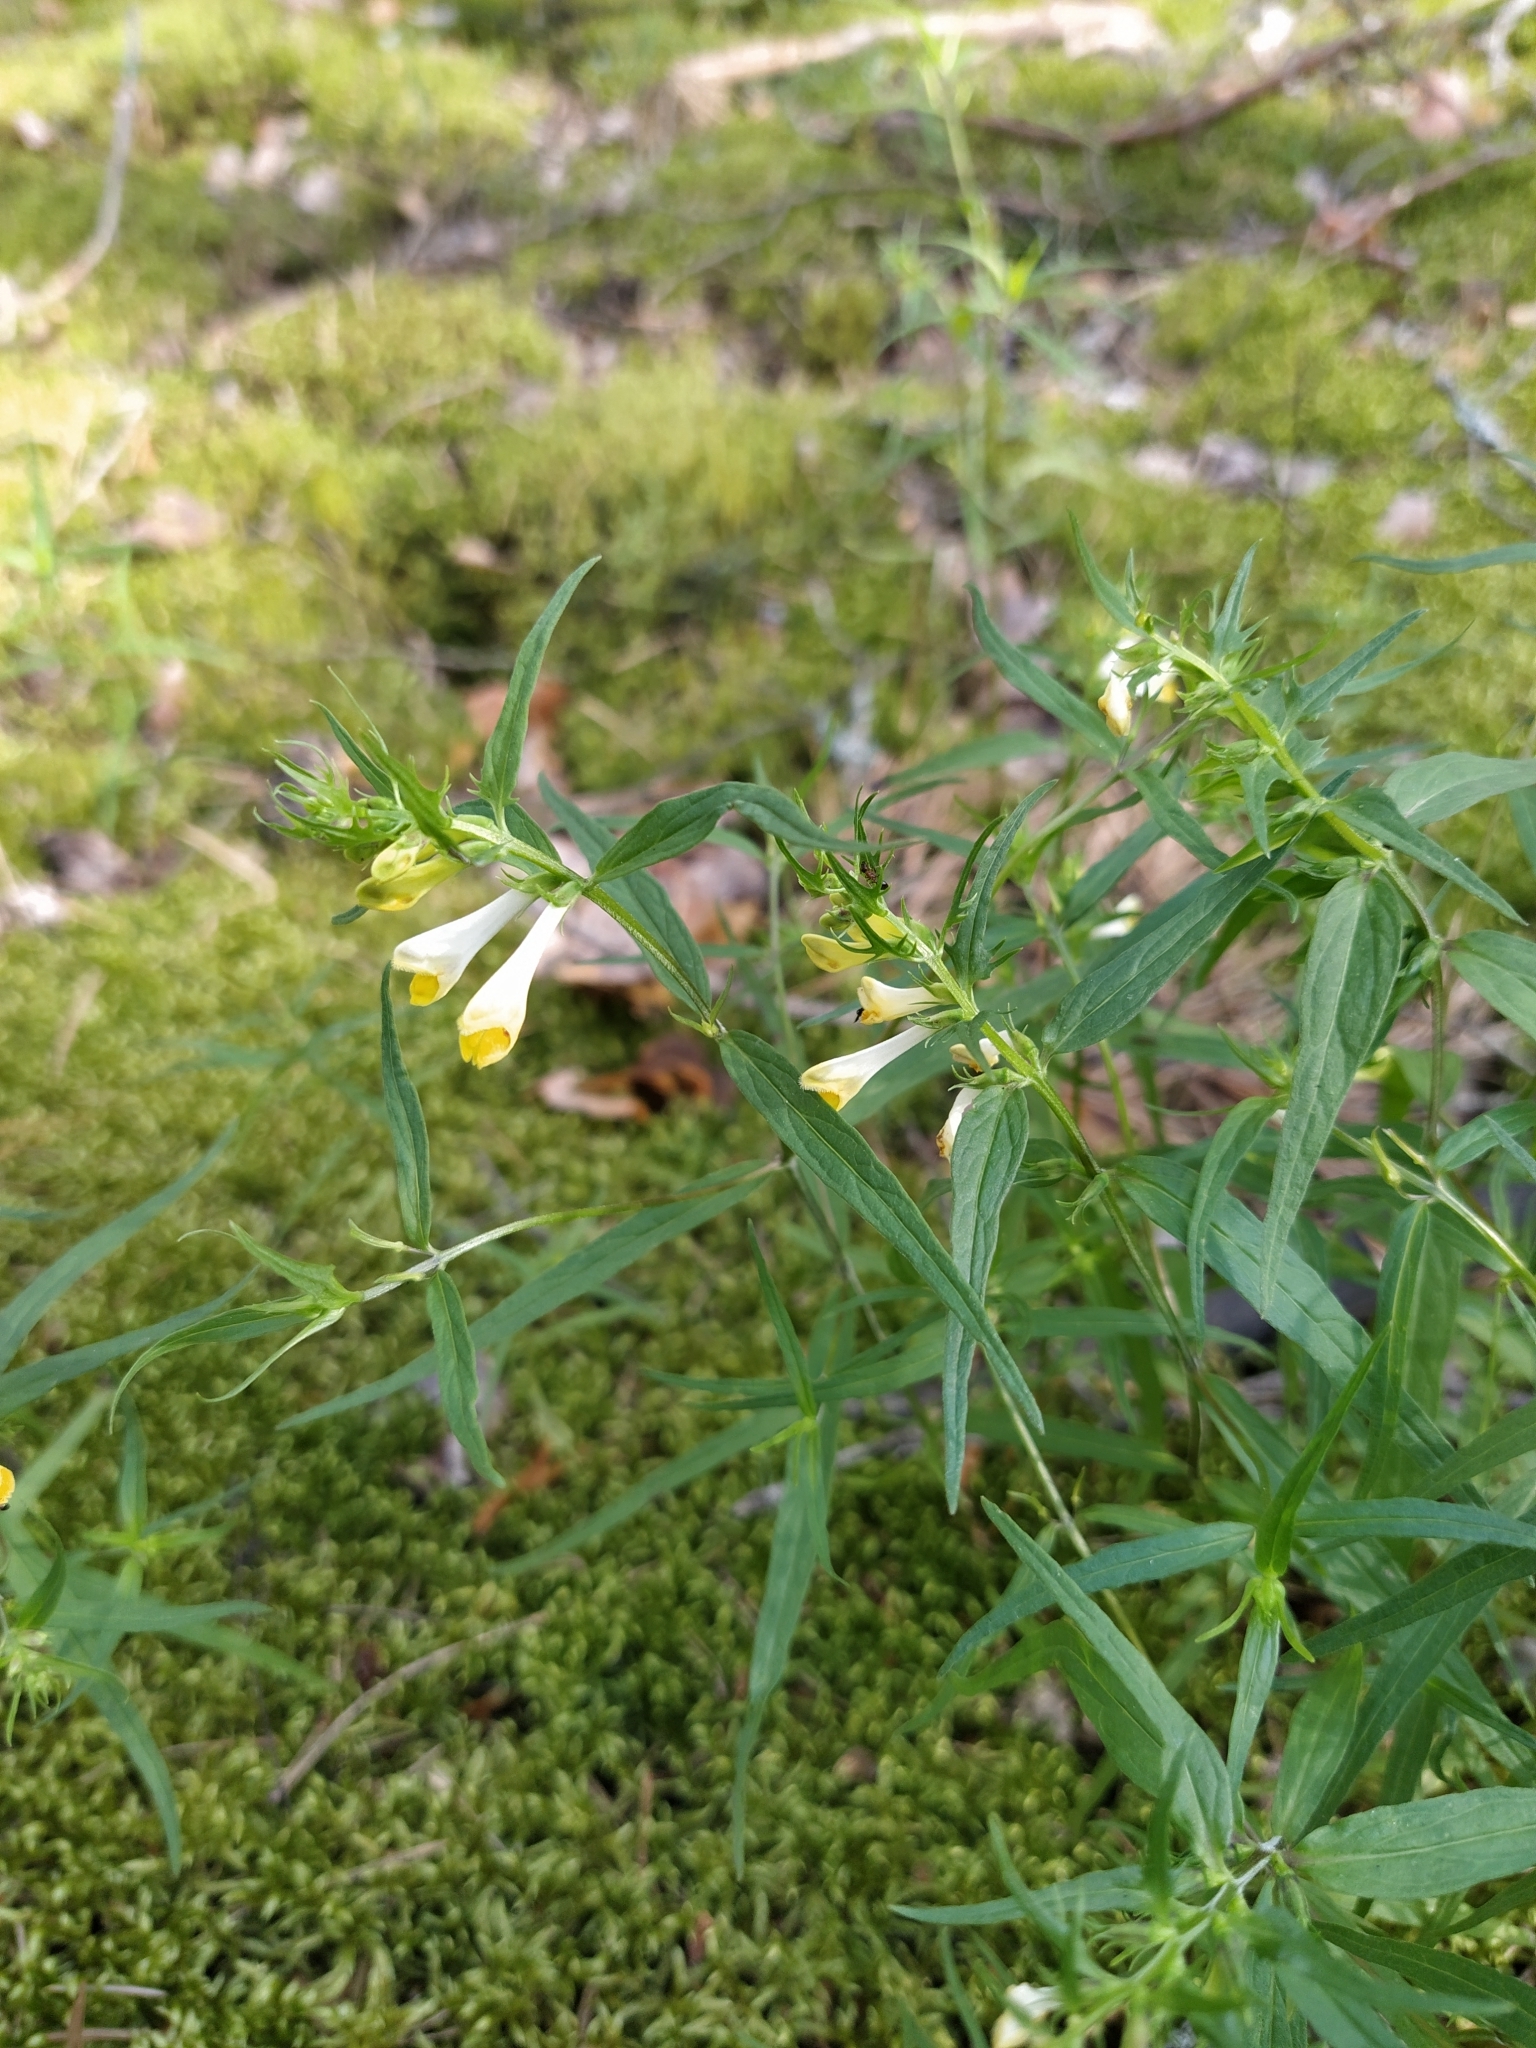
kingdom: Plantae
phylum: Tracheophyta
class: Magnoliopsida
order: Lamiales
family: Orobanchaceae
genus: Melampyrum
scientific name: Melampyrum pratense
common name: Common cow-wheat
